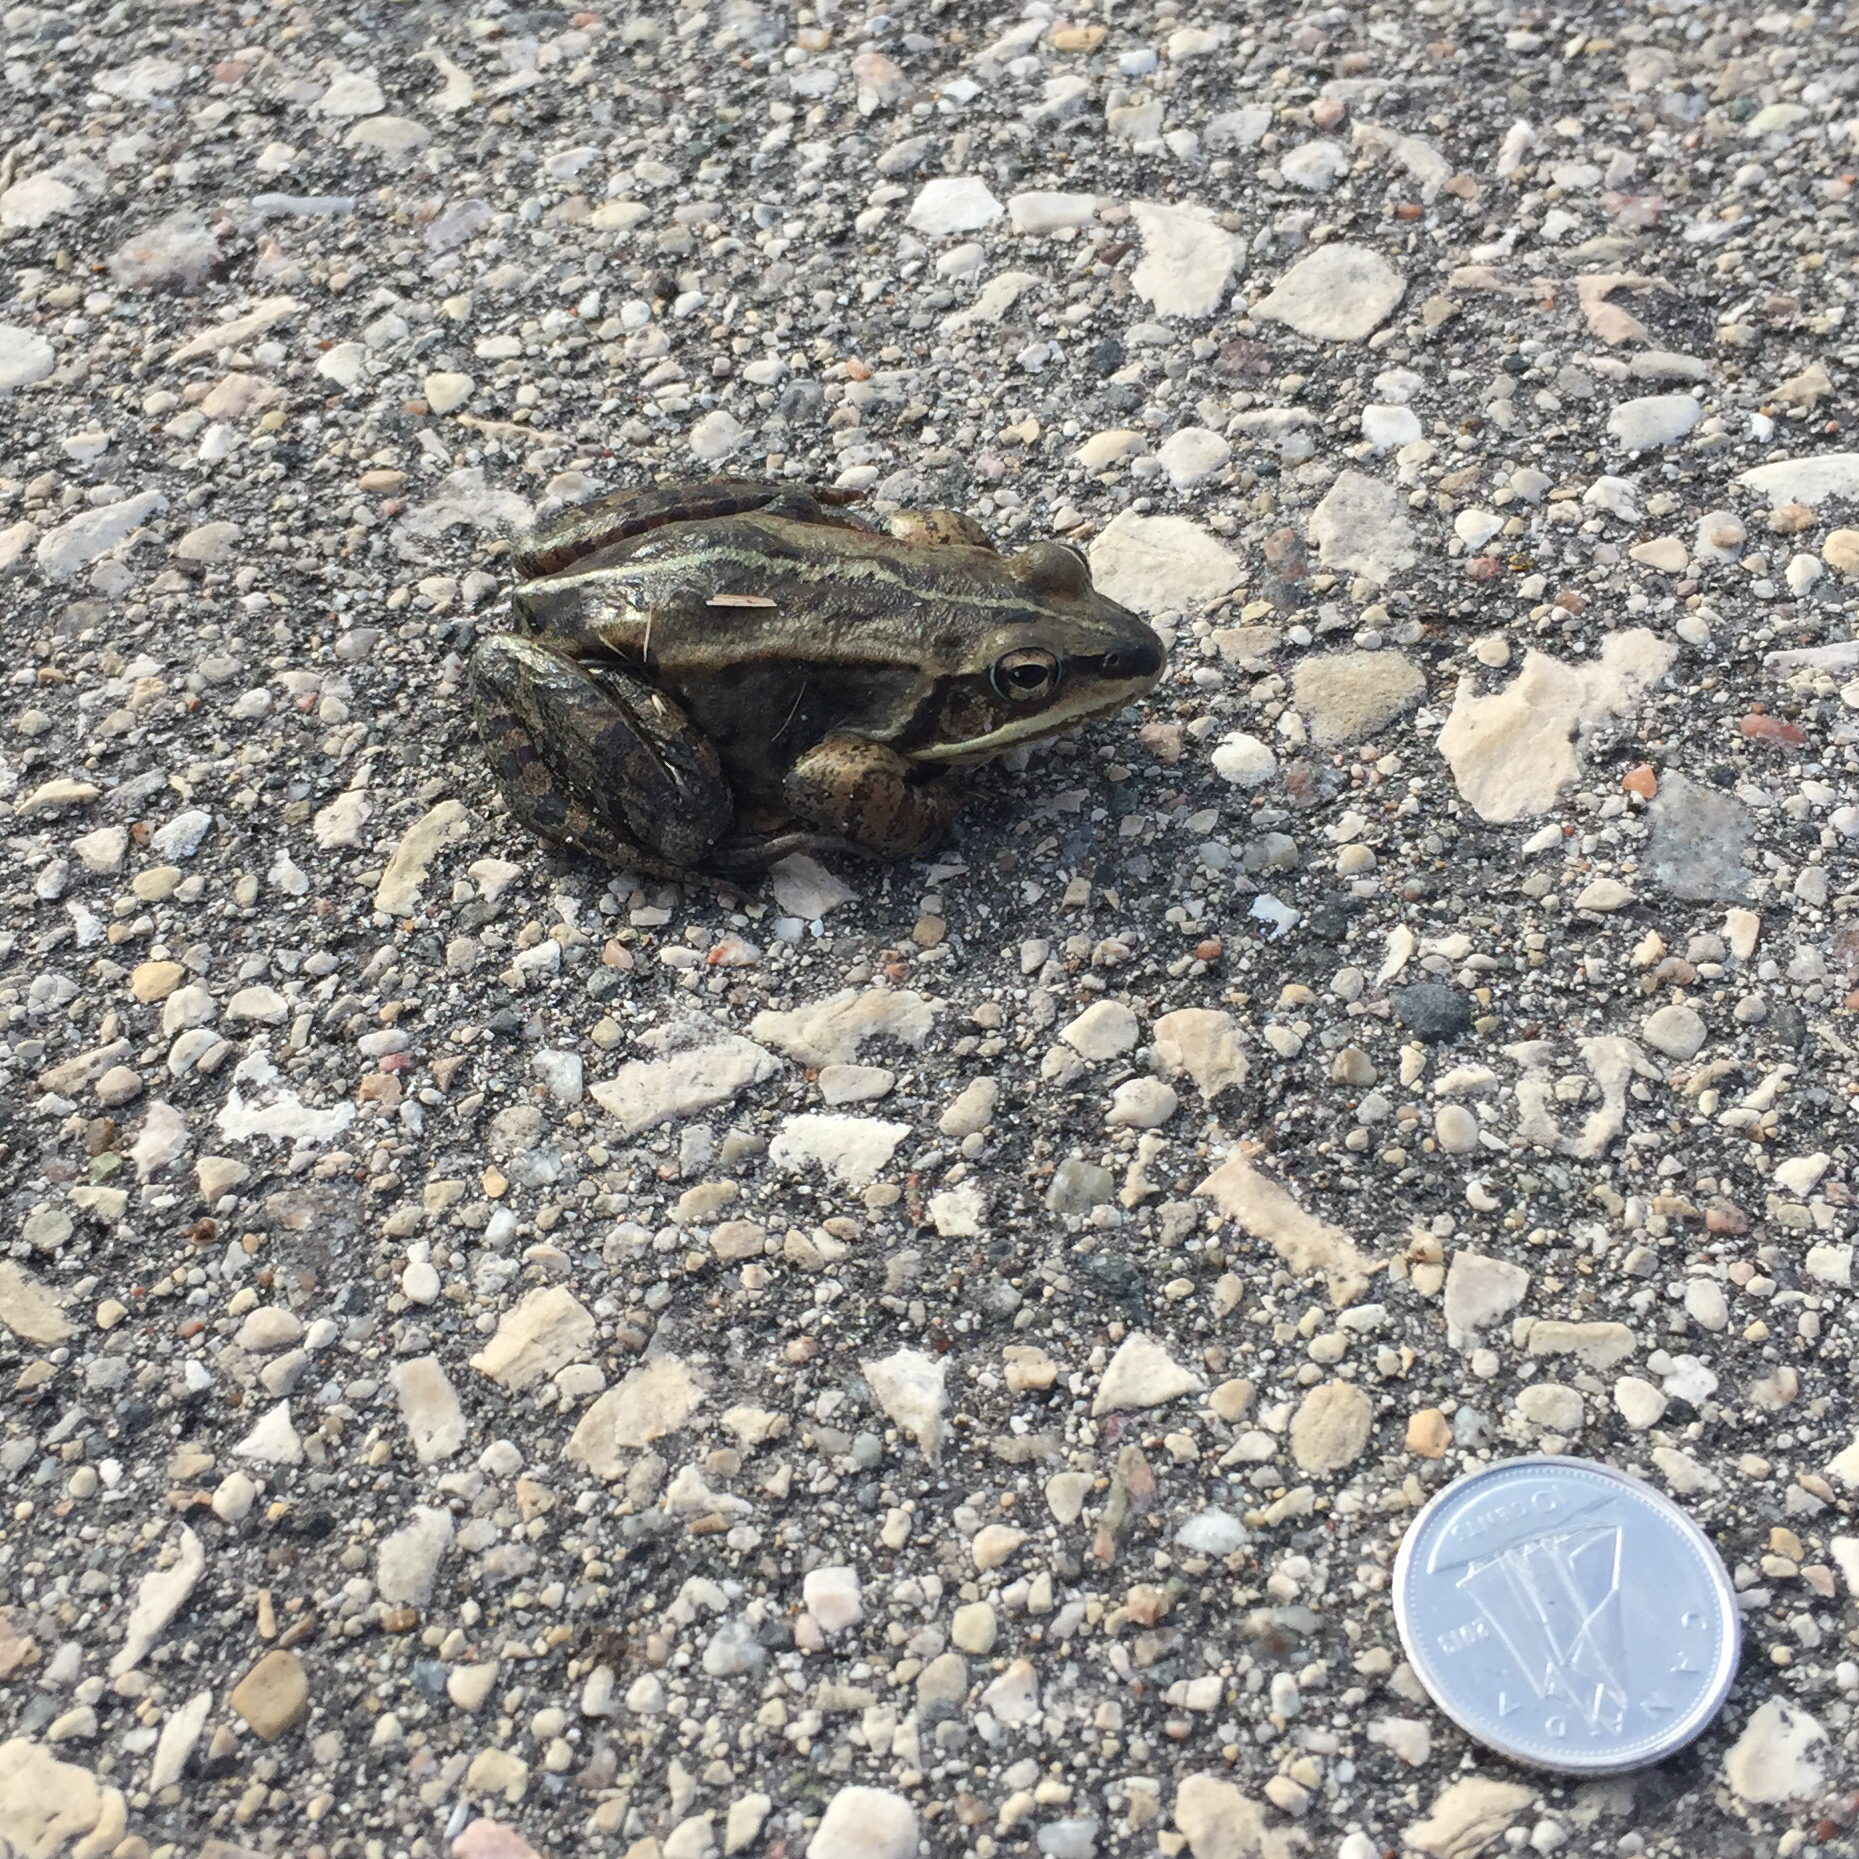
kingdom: Animalia
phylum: Chordata
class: Amphibia
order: Anura
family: Ranidae
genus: Lithobates
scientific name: Lithobates sylvaticus
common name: Wood frog
